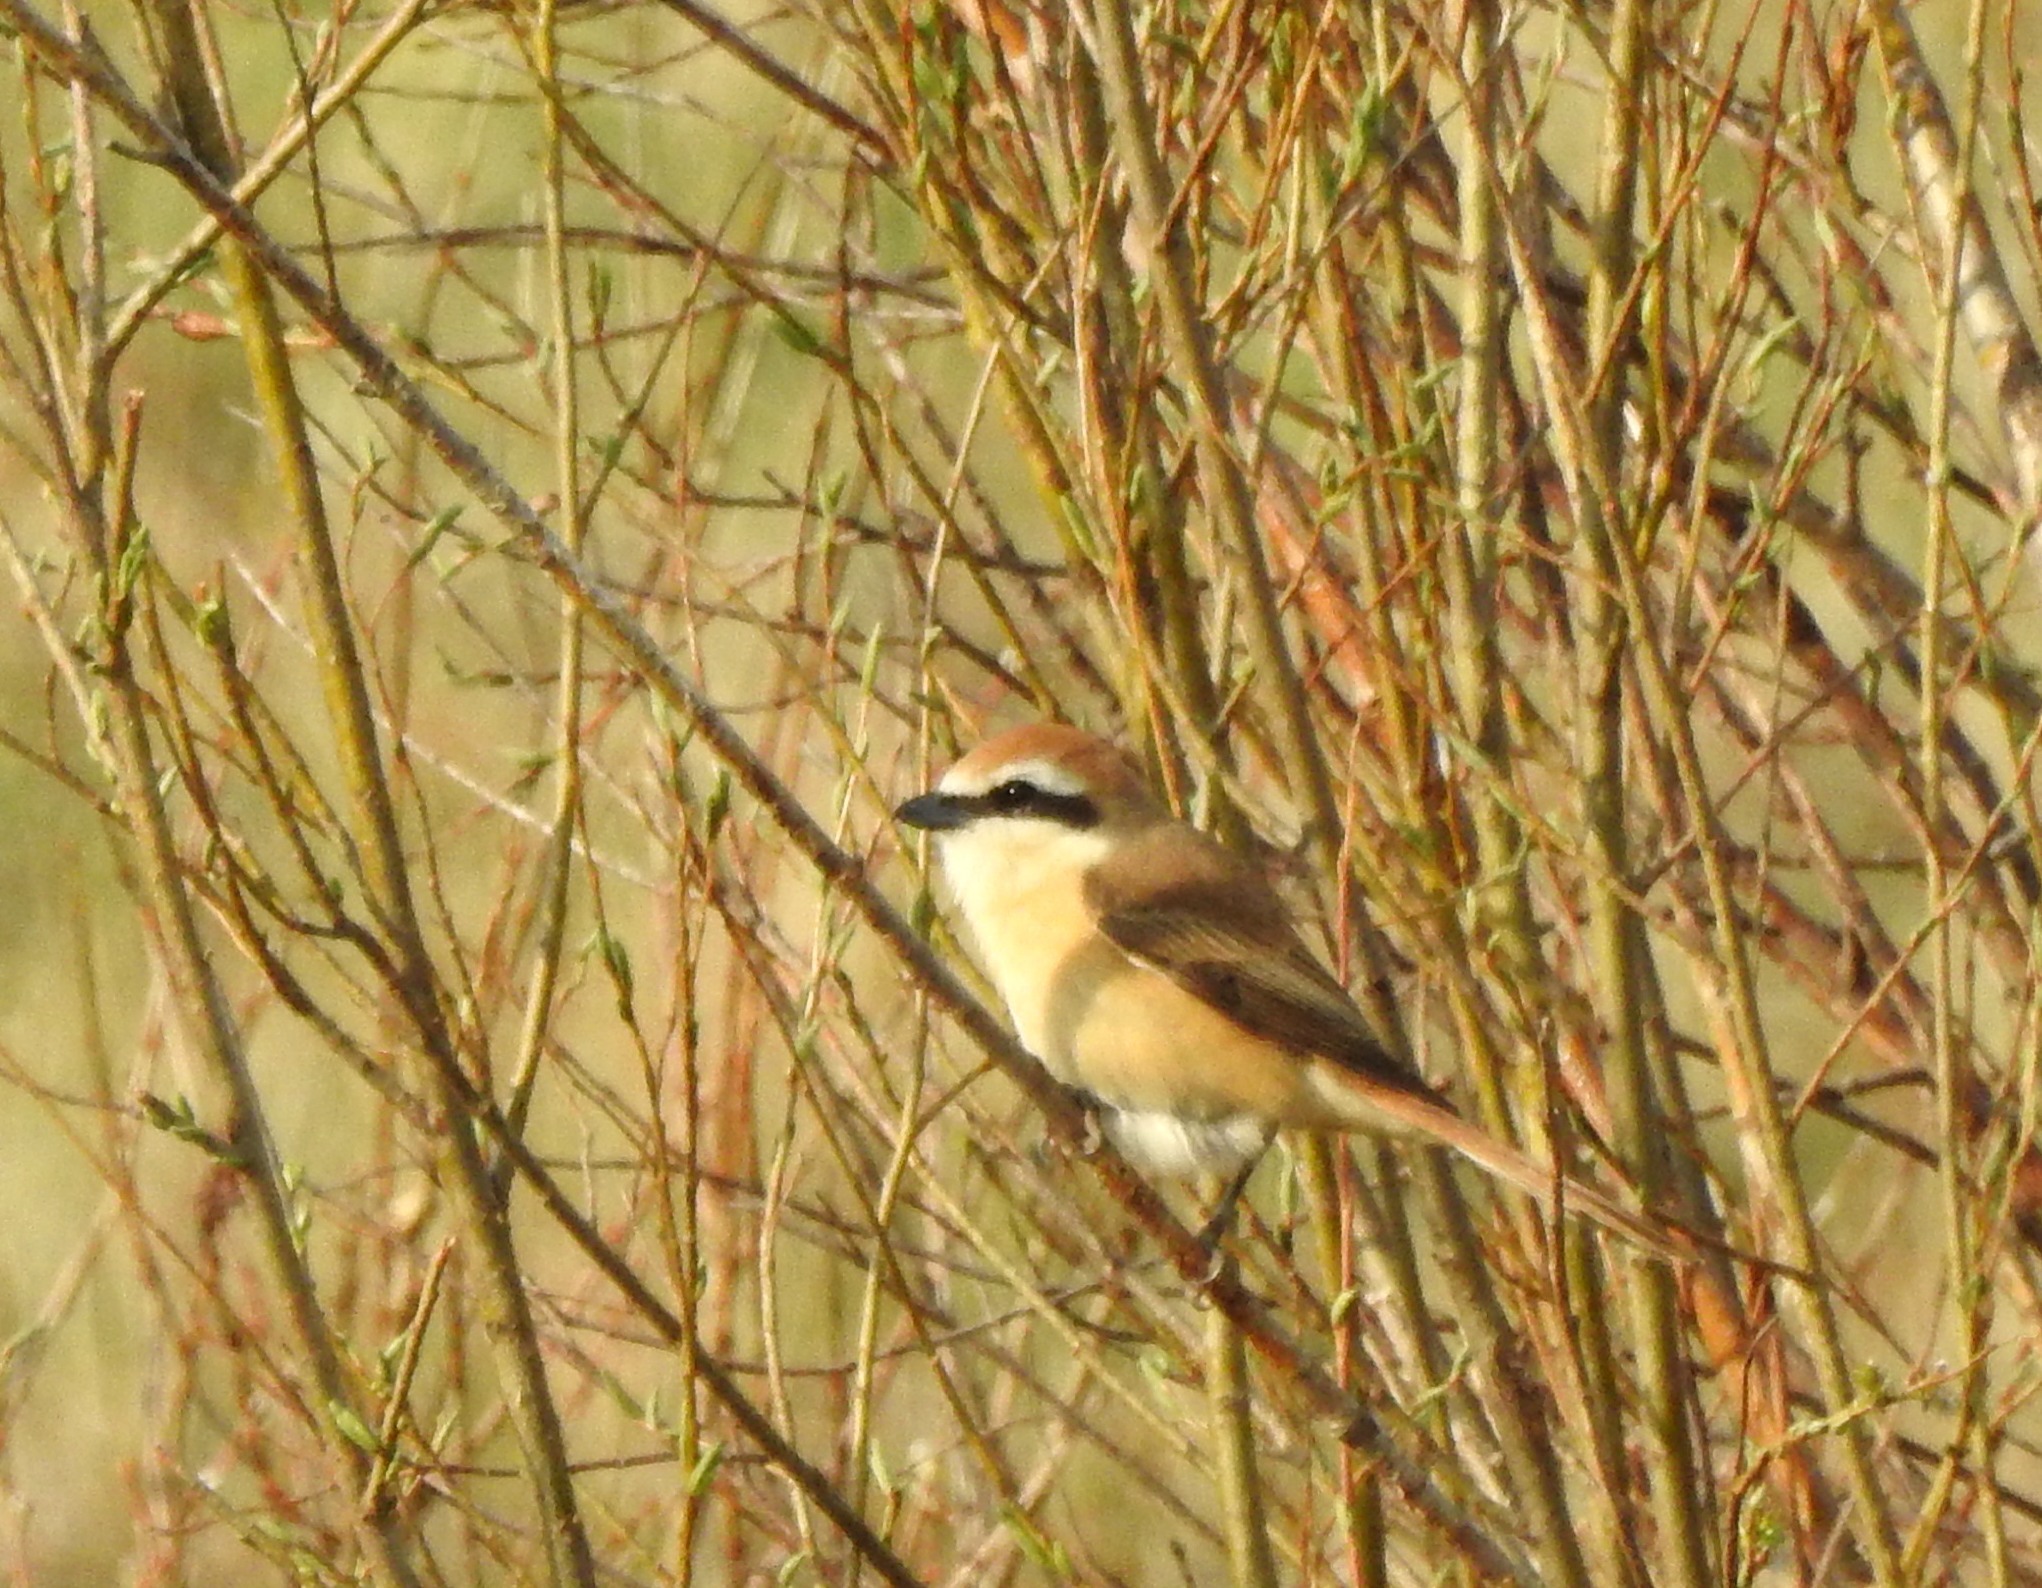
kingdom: Animalia
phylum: Chordata
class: Aves
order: Passeriformes
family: Laniidae
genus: Lanius
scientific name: Lanius cristatus
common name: Brown shrike
